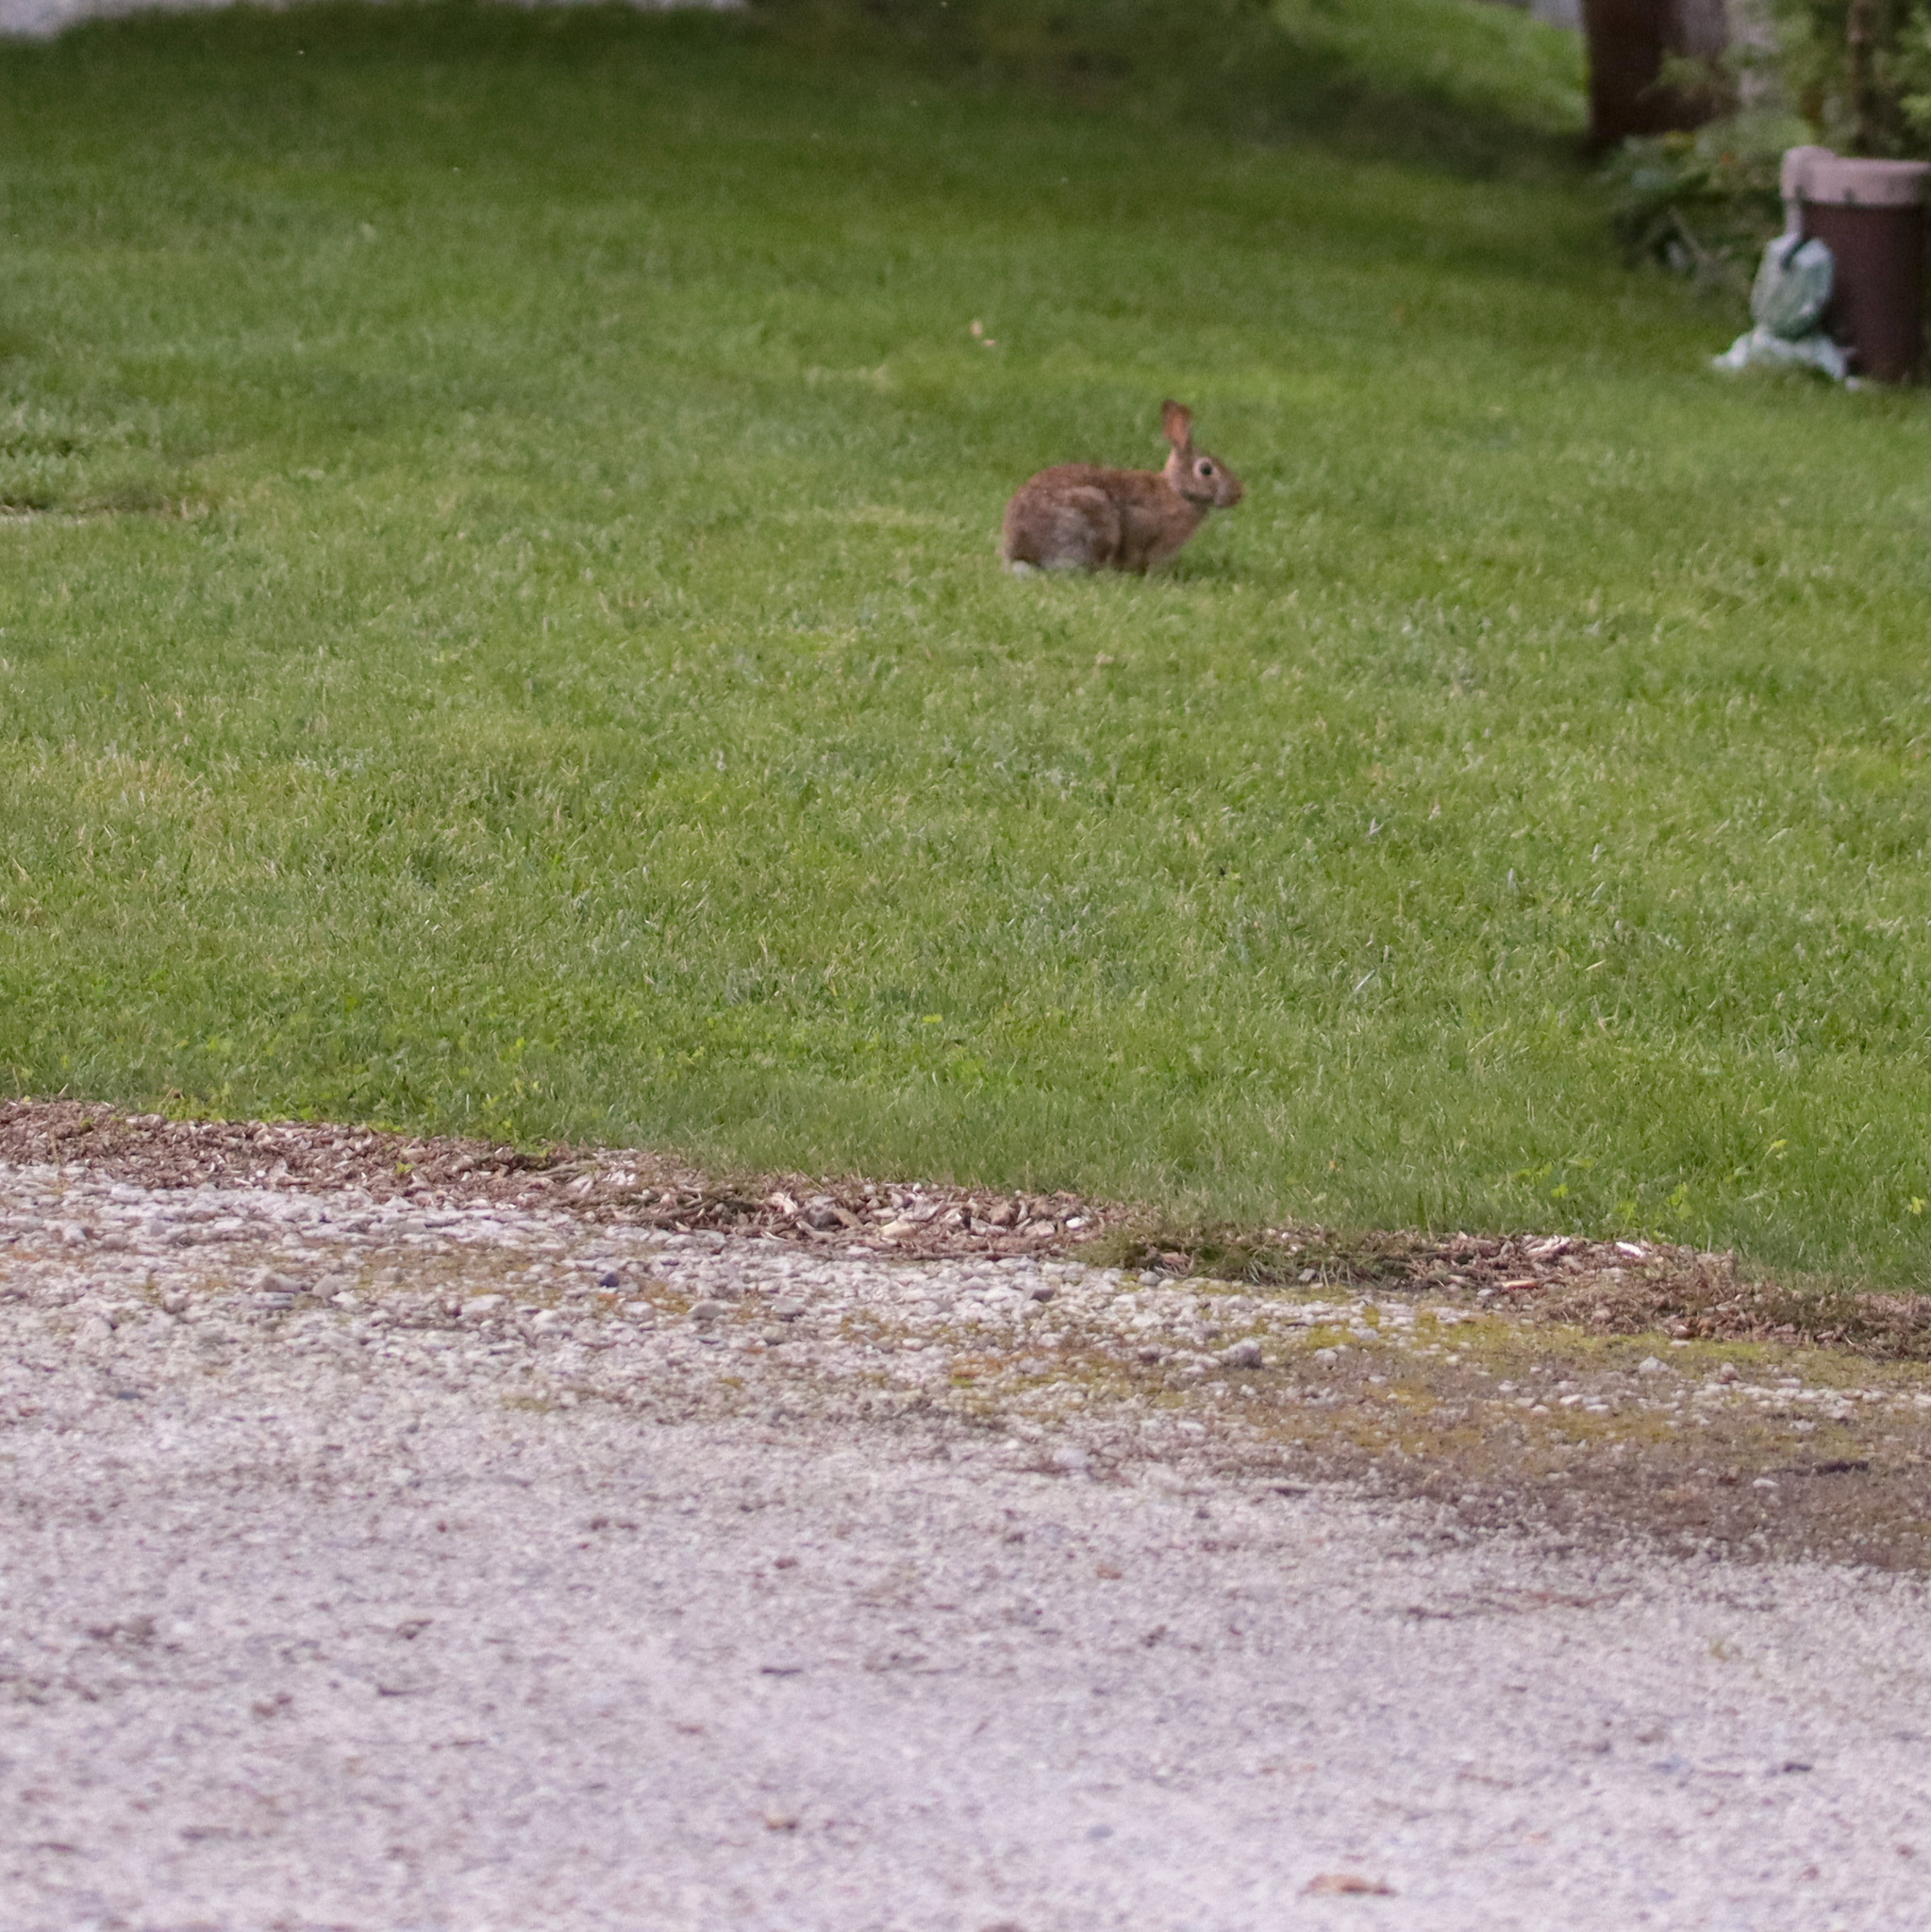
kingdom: Animalia
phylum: Chordata
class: Mammalia
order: Lagomorpha
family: Leporidae
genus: Sylvilagus
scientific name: Sylvilagus floridanus
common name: Eastern cottontail
